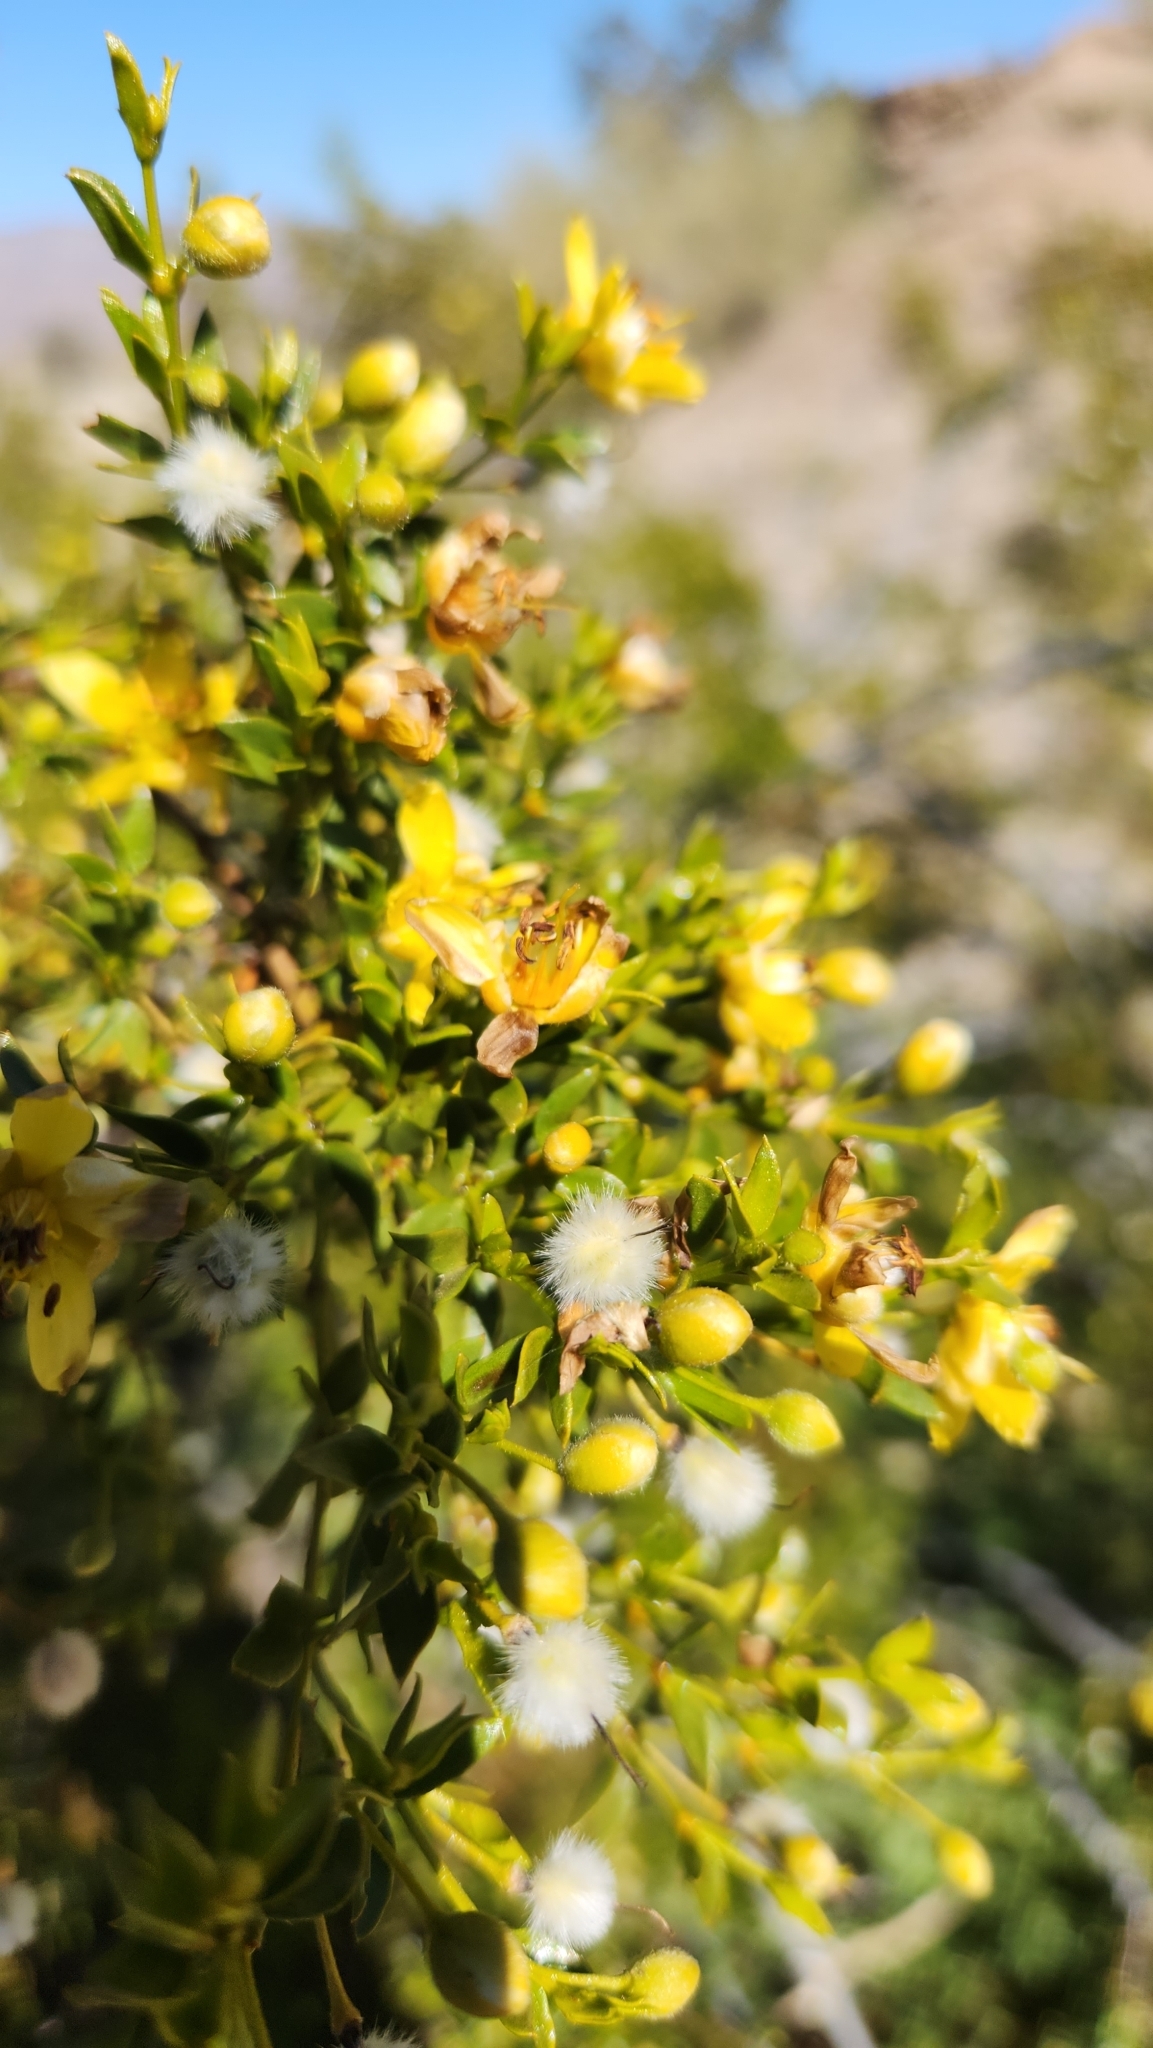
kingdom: Plantae
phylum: Tracheophyta
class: Magnoliopsida
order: Zygophyllales
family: Zygophyllaceae
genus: Larrea
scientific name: Larrea tridentata
